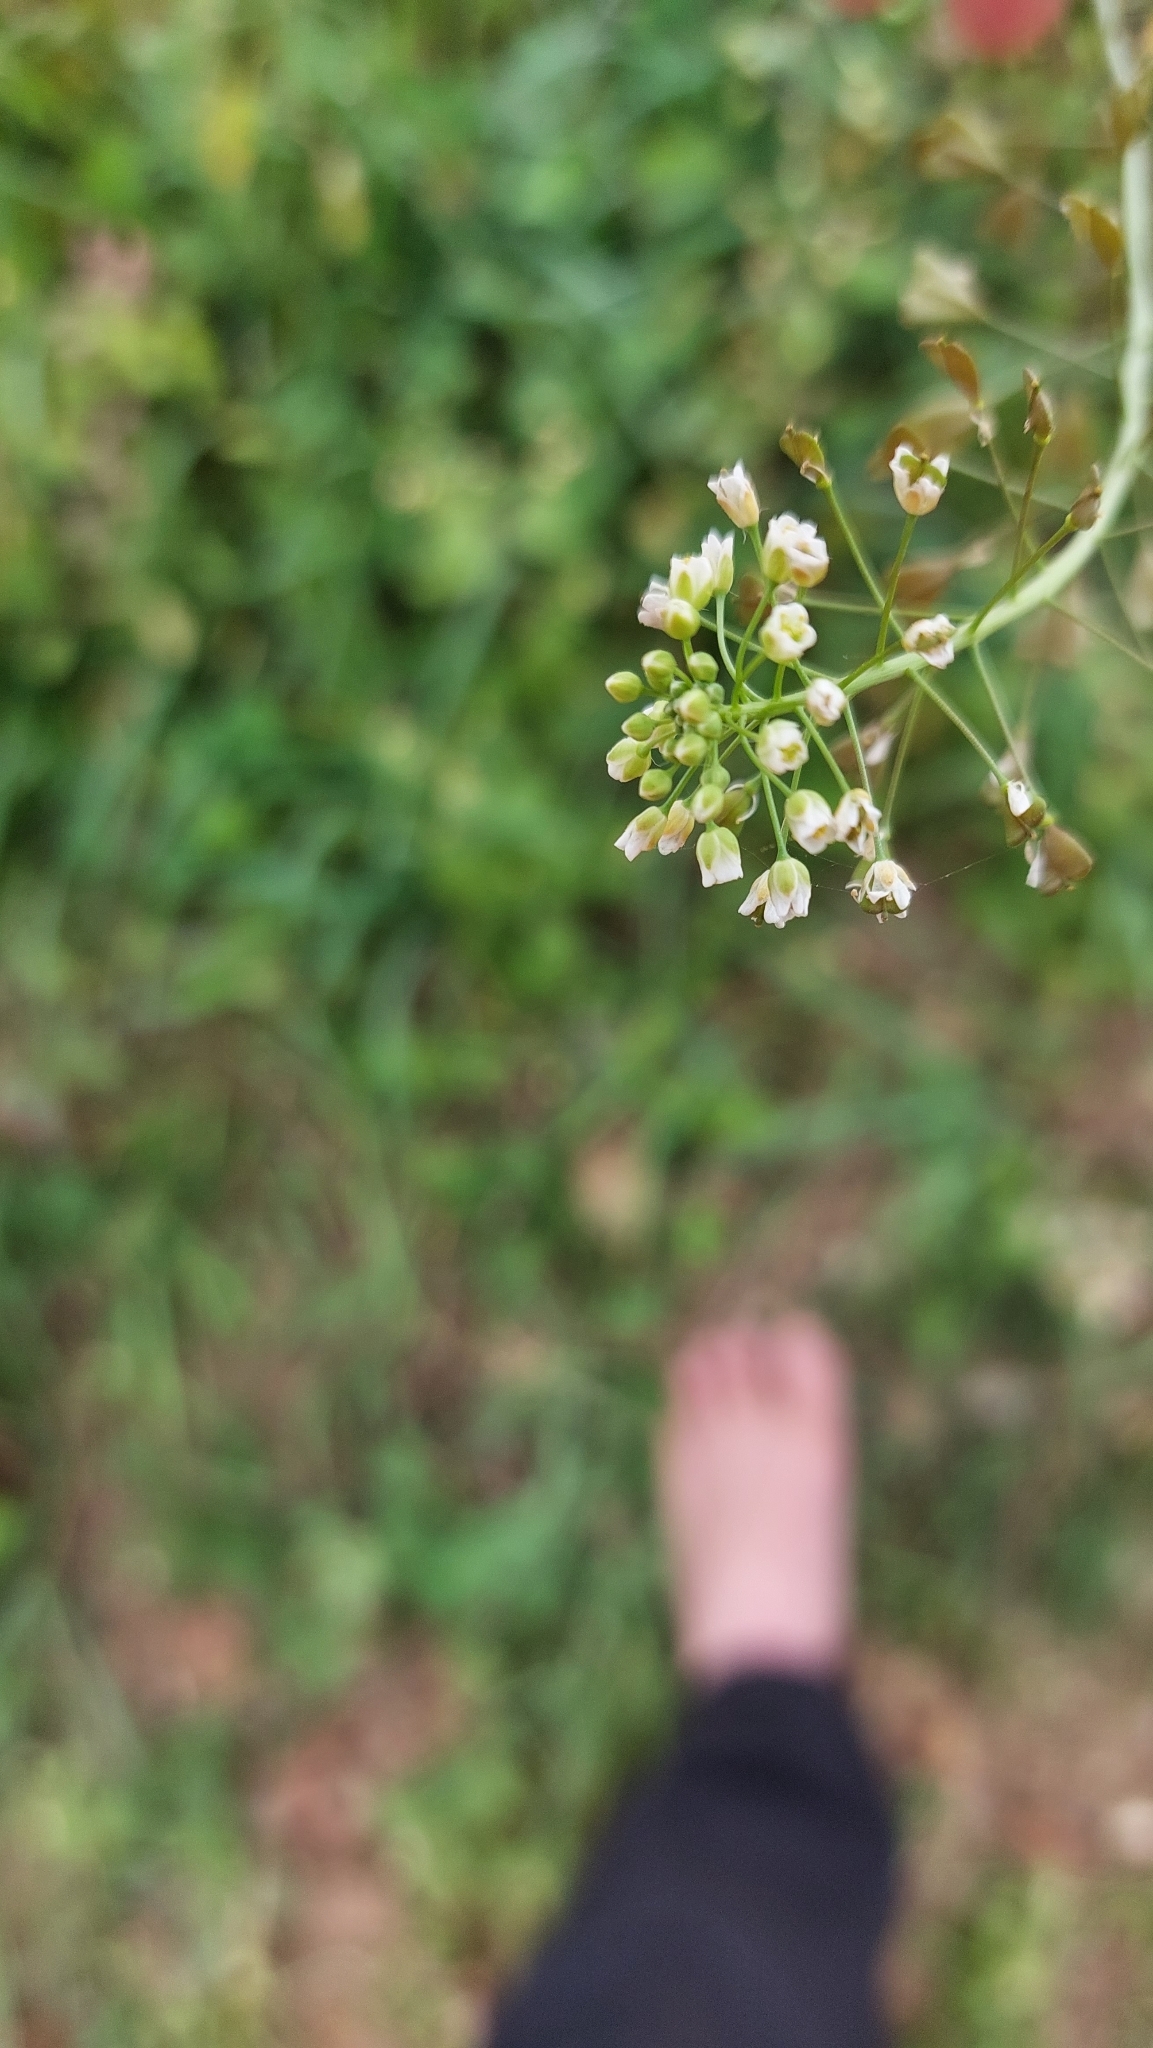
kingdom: Plantae
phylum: Tracheophyta
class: Magnoliopsida
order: Brassicales
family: Brassicaceae
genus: Capsella
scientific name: Capsella bursa-pastoris
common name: Shepherd's purse
